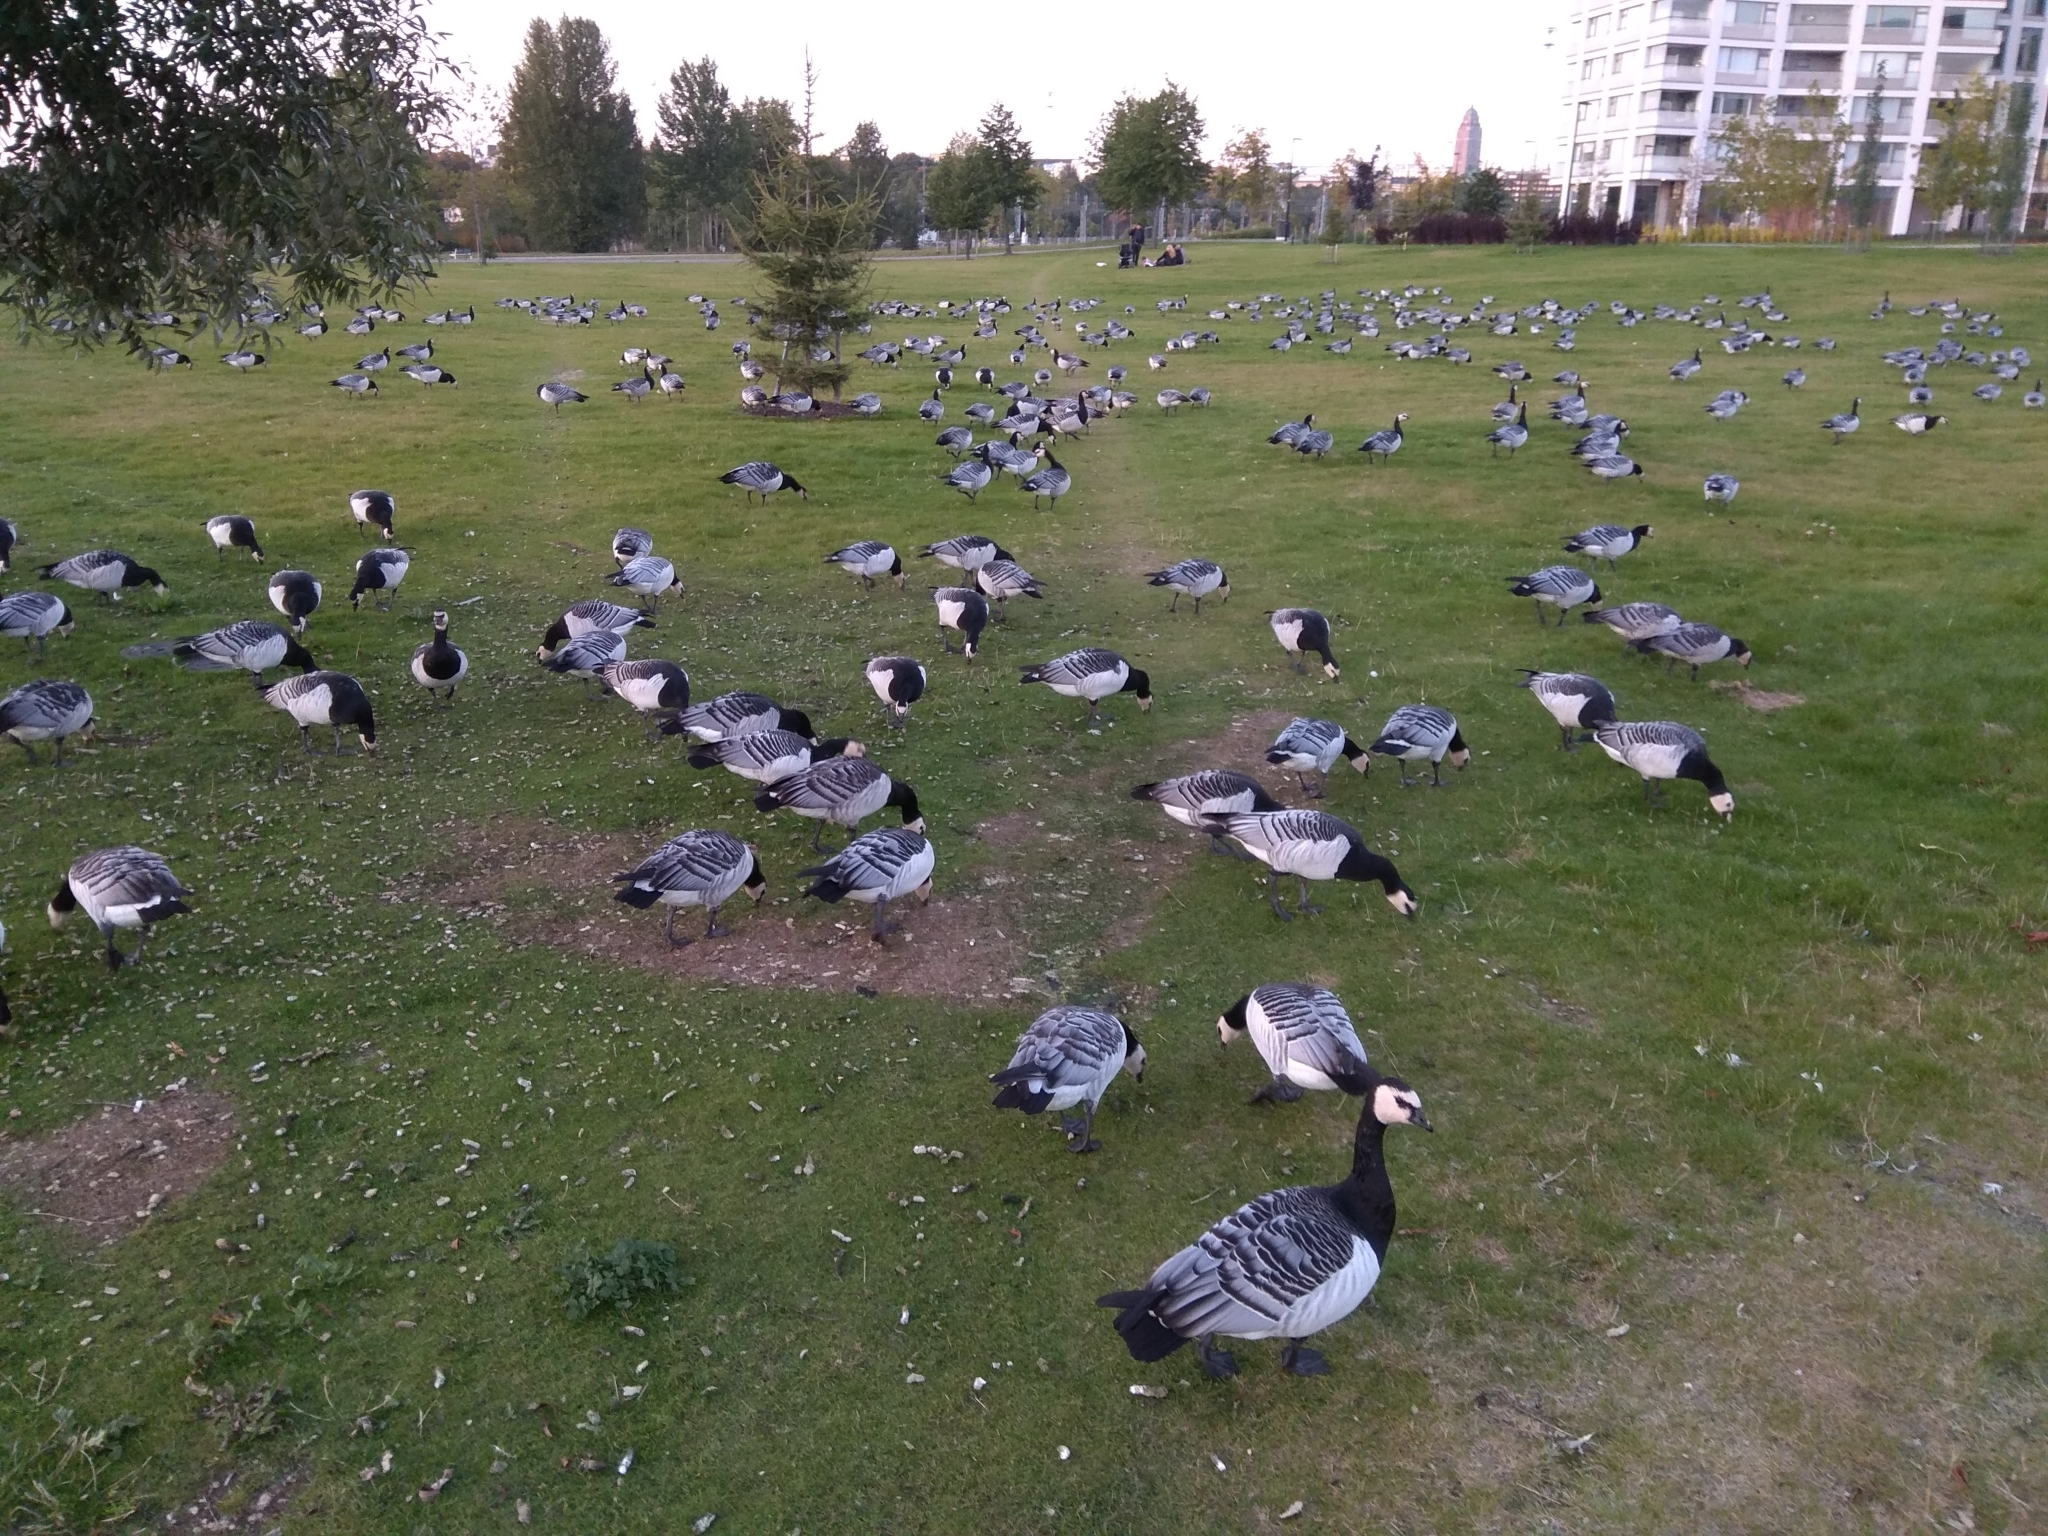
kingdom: Animalia
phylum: Chordata
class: Aves
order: Anseriformes
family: Anatidae
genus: Branta
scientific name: Branta leucopsis
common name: Barnacle goose
